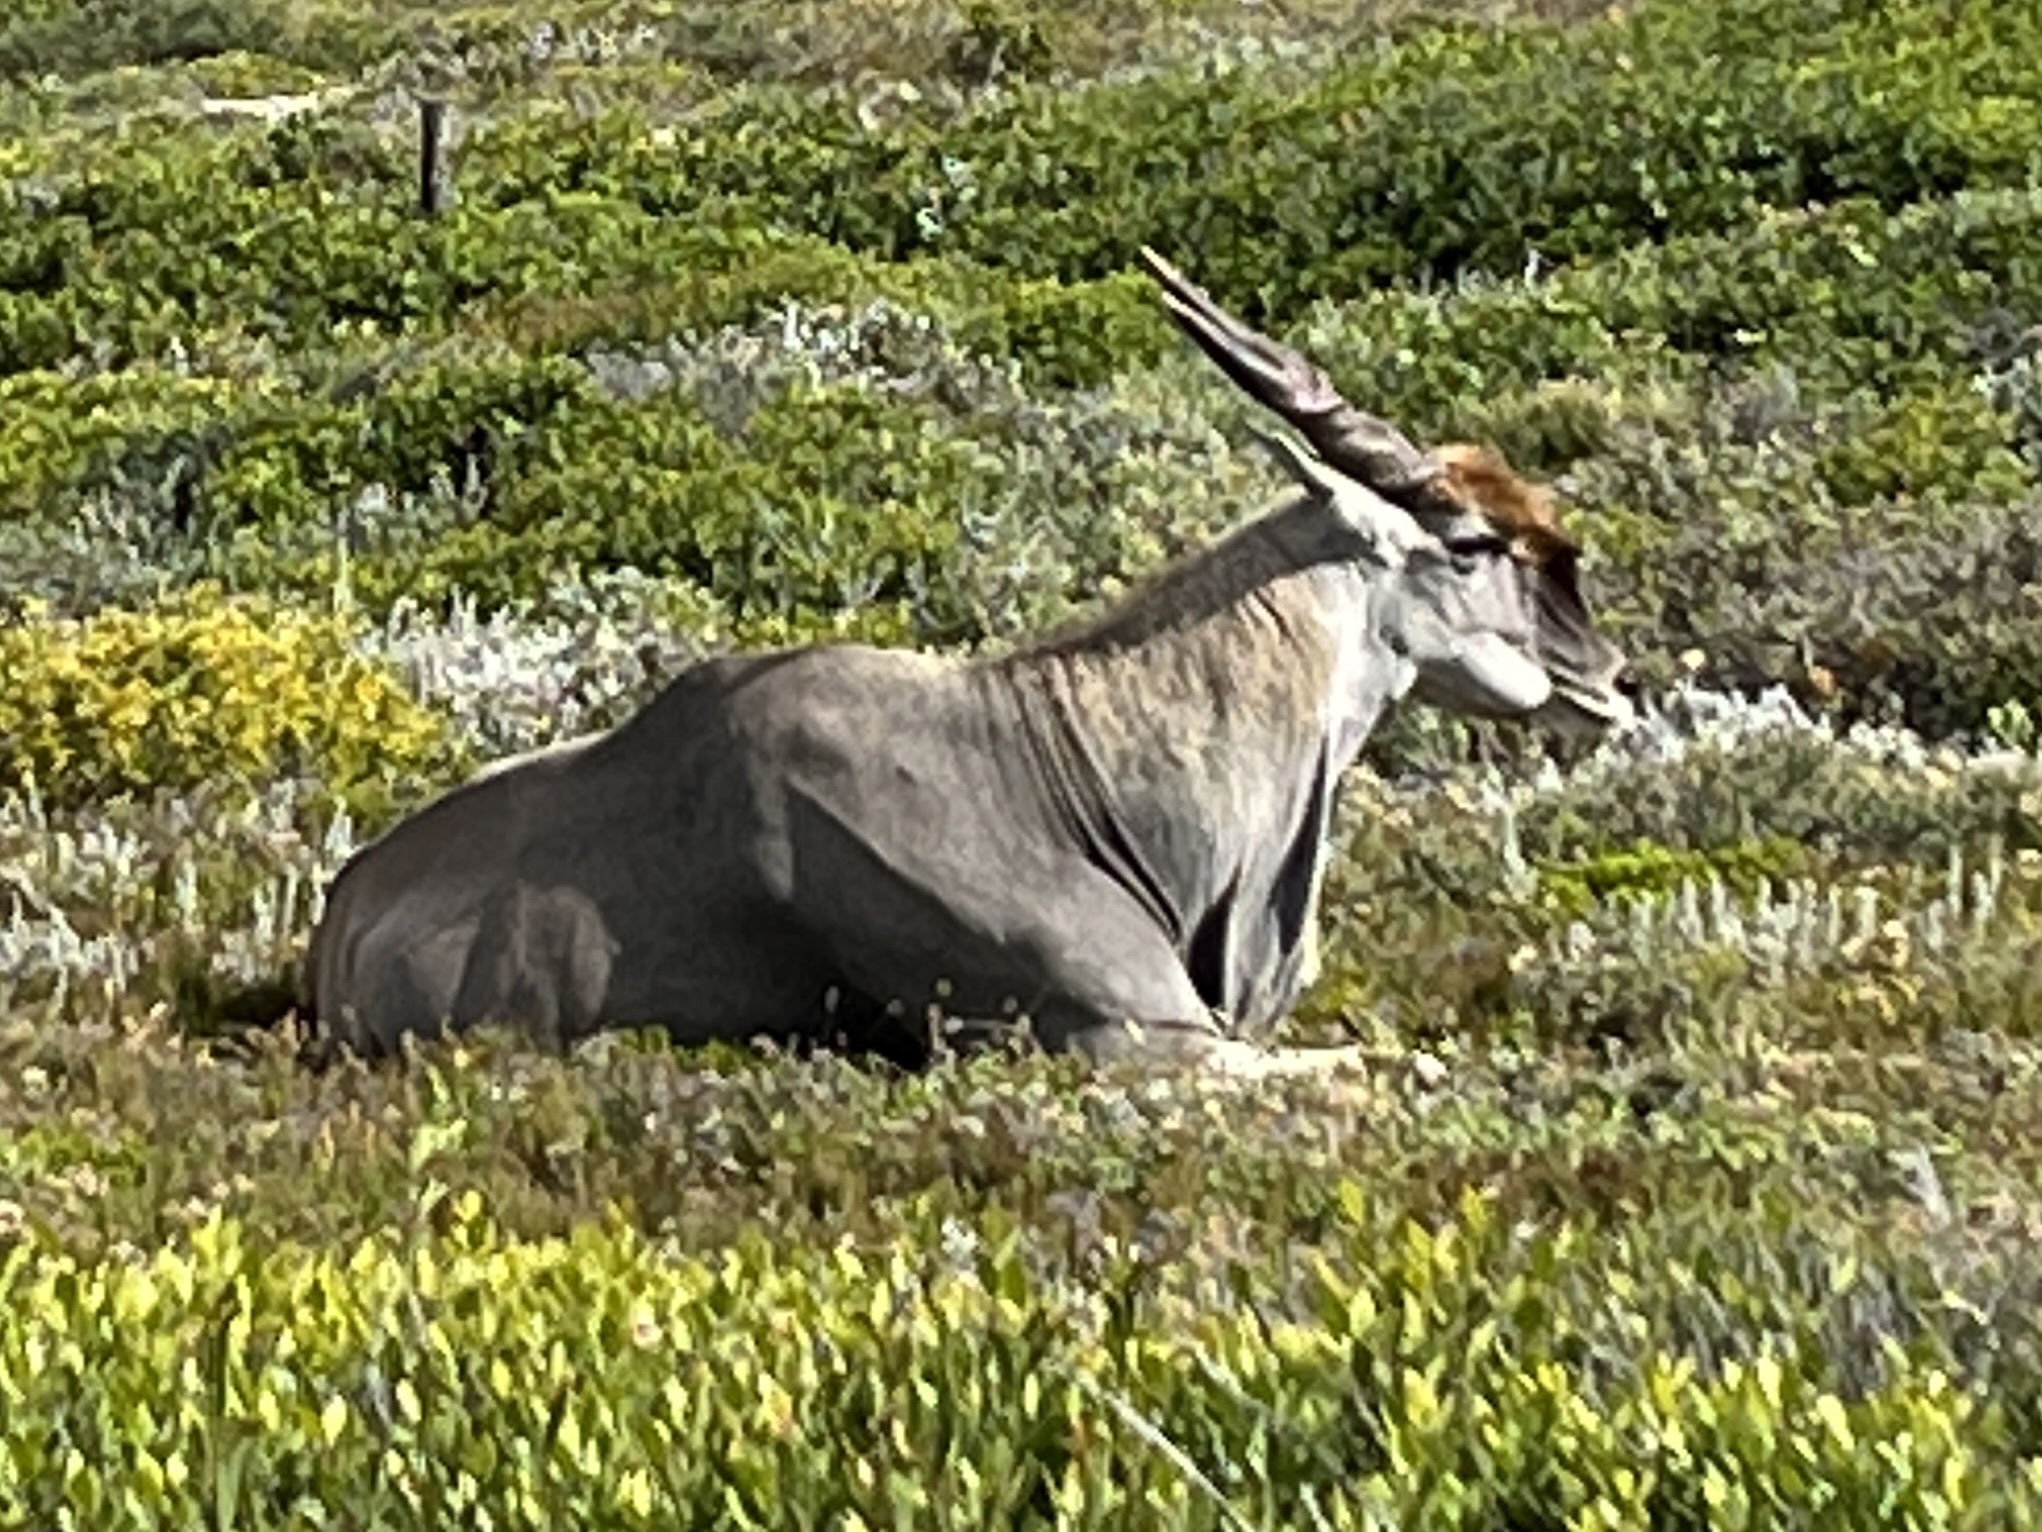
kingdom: Animalia
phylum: Chordata
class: Mammalia
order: Artiodactyla
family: Bovidae
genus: Taurotragus
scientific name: Taurotragus oryx
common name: Common eland
